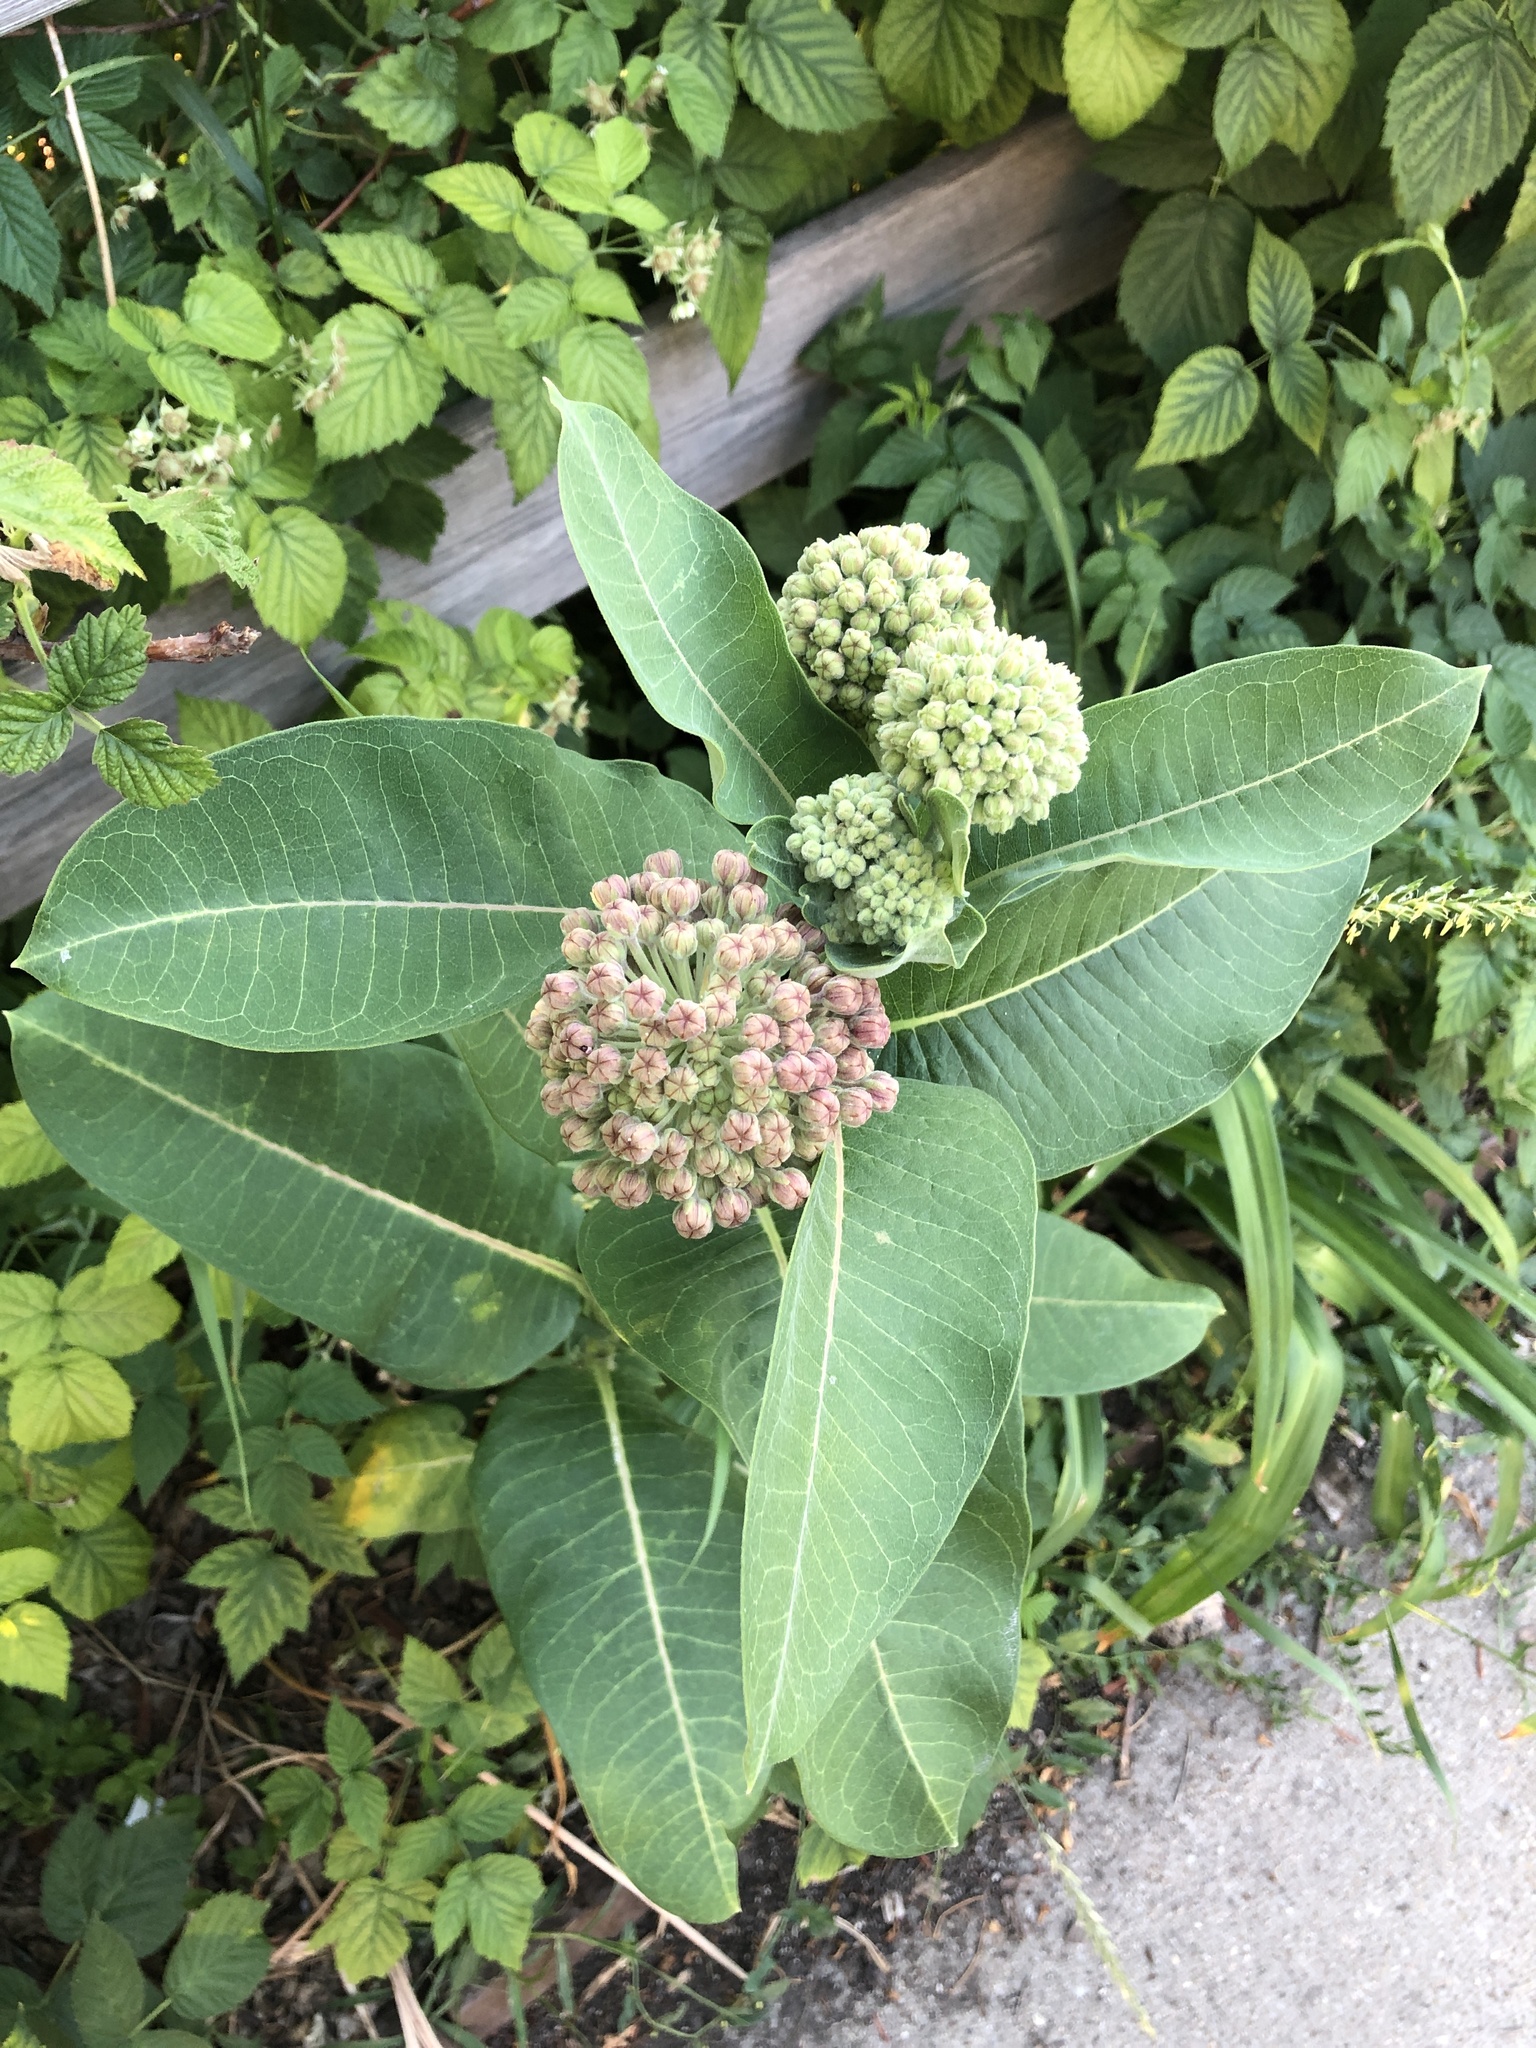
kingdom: Plantae
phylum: Tracheophyta
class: Magnoliopsida
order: Gentianales
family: Apocynaceae
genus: Asclepias
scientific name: Asclepias syriaca
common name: Common milkweed
